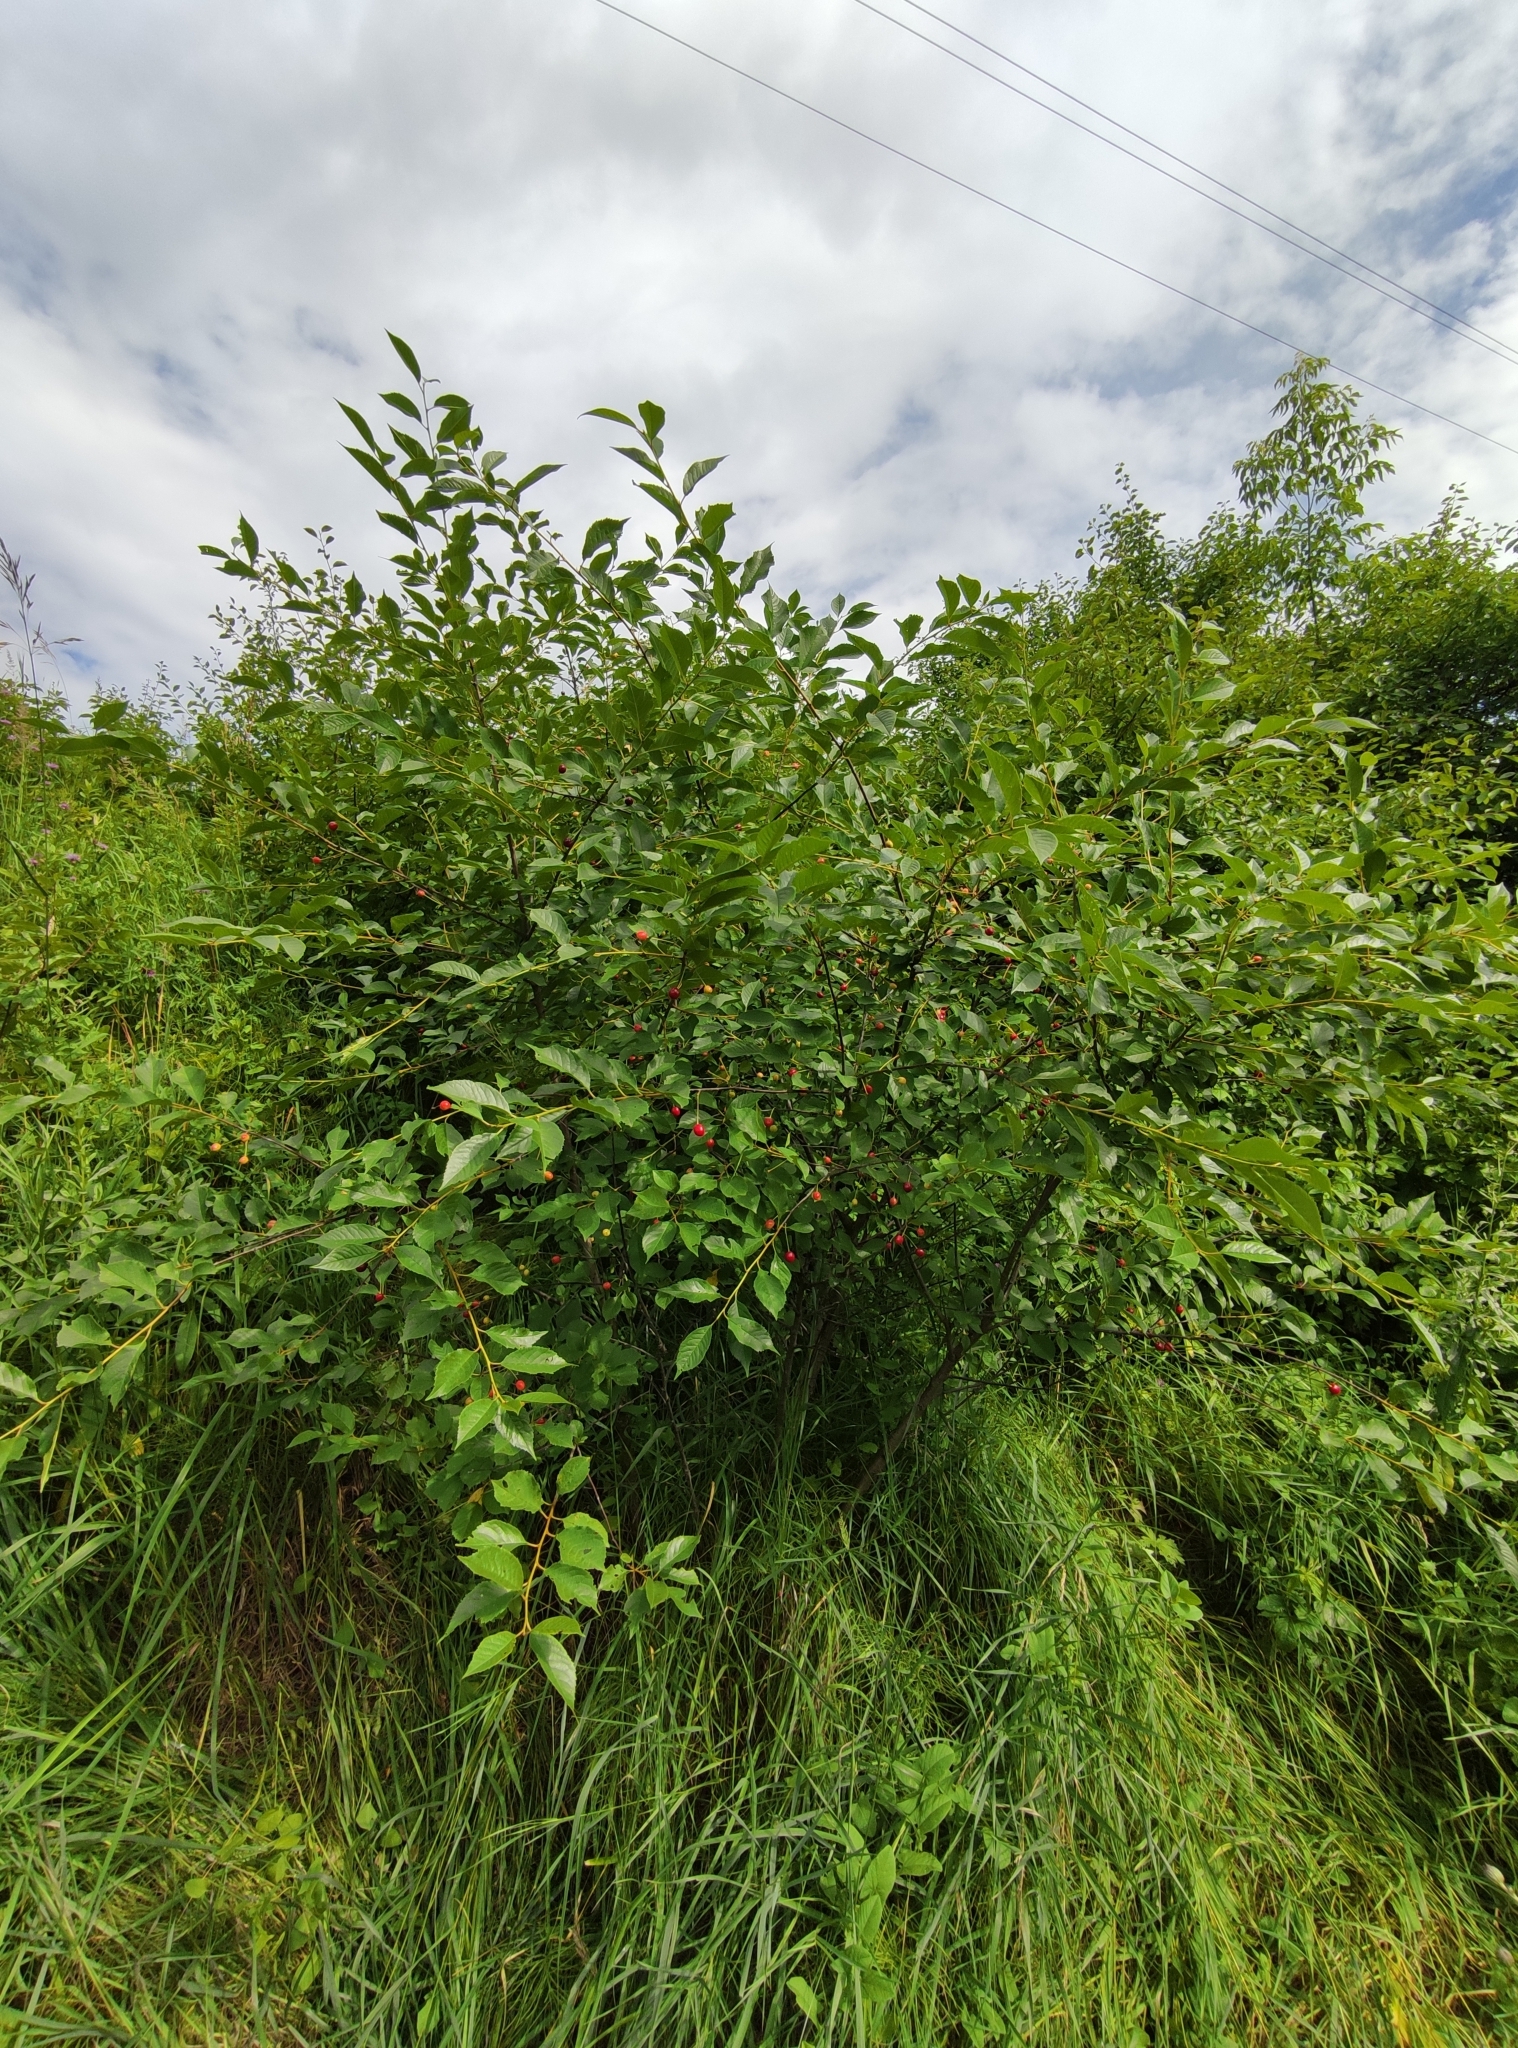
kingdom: Plantae
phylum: Tracheophyta
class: Magnoliopsida
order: Rosales
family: Rosaceae
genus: Prunus
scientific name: Prunus cerasus
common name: Morello cherry
